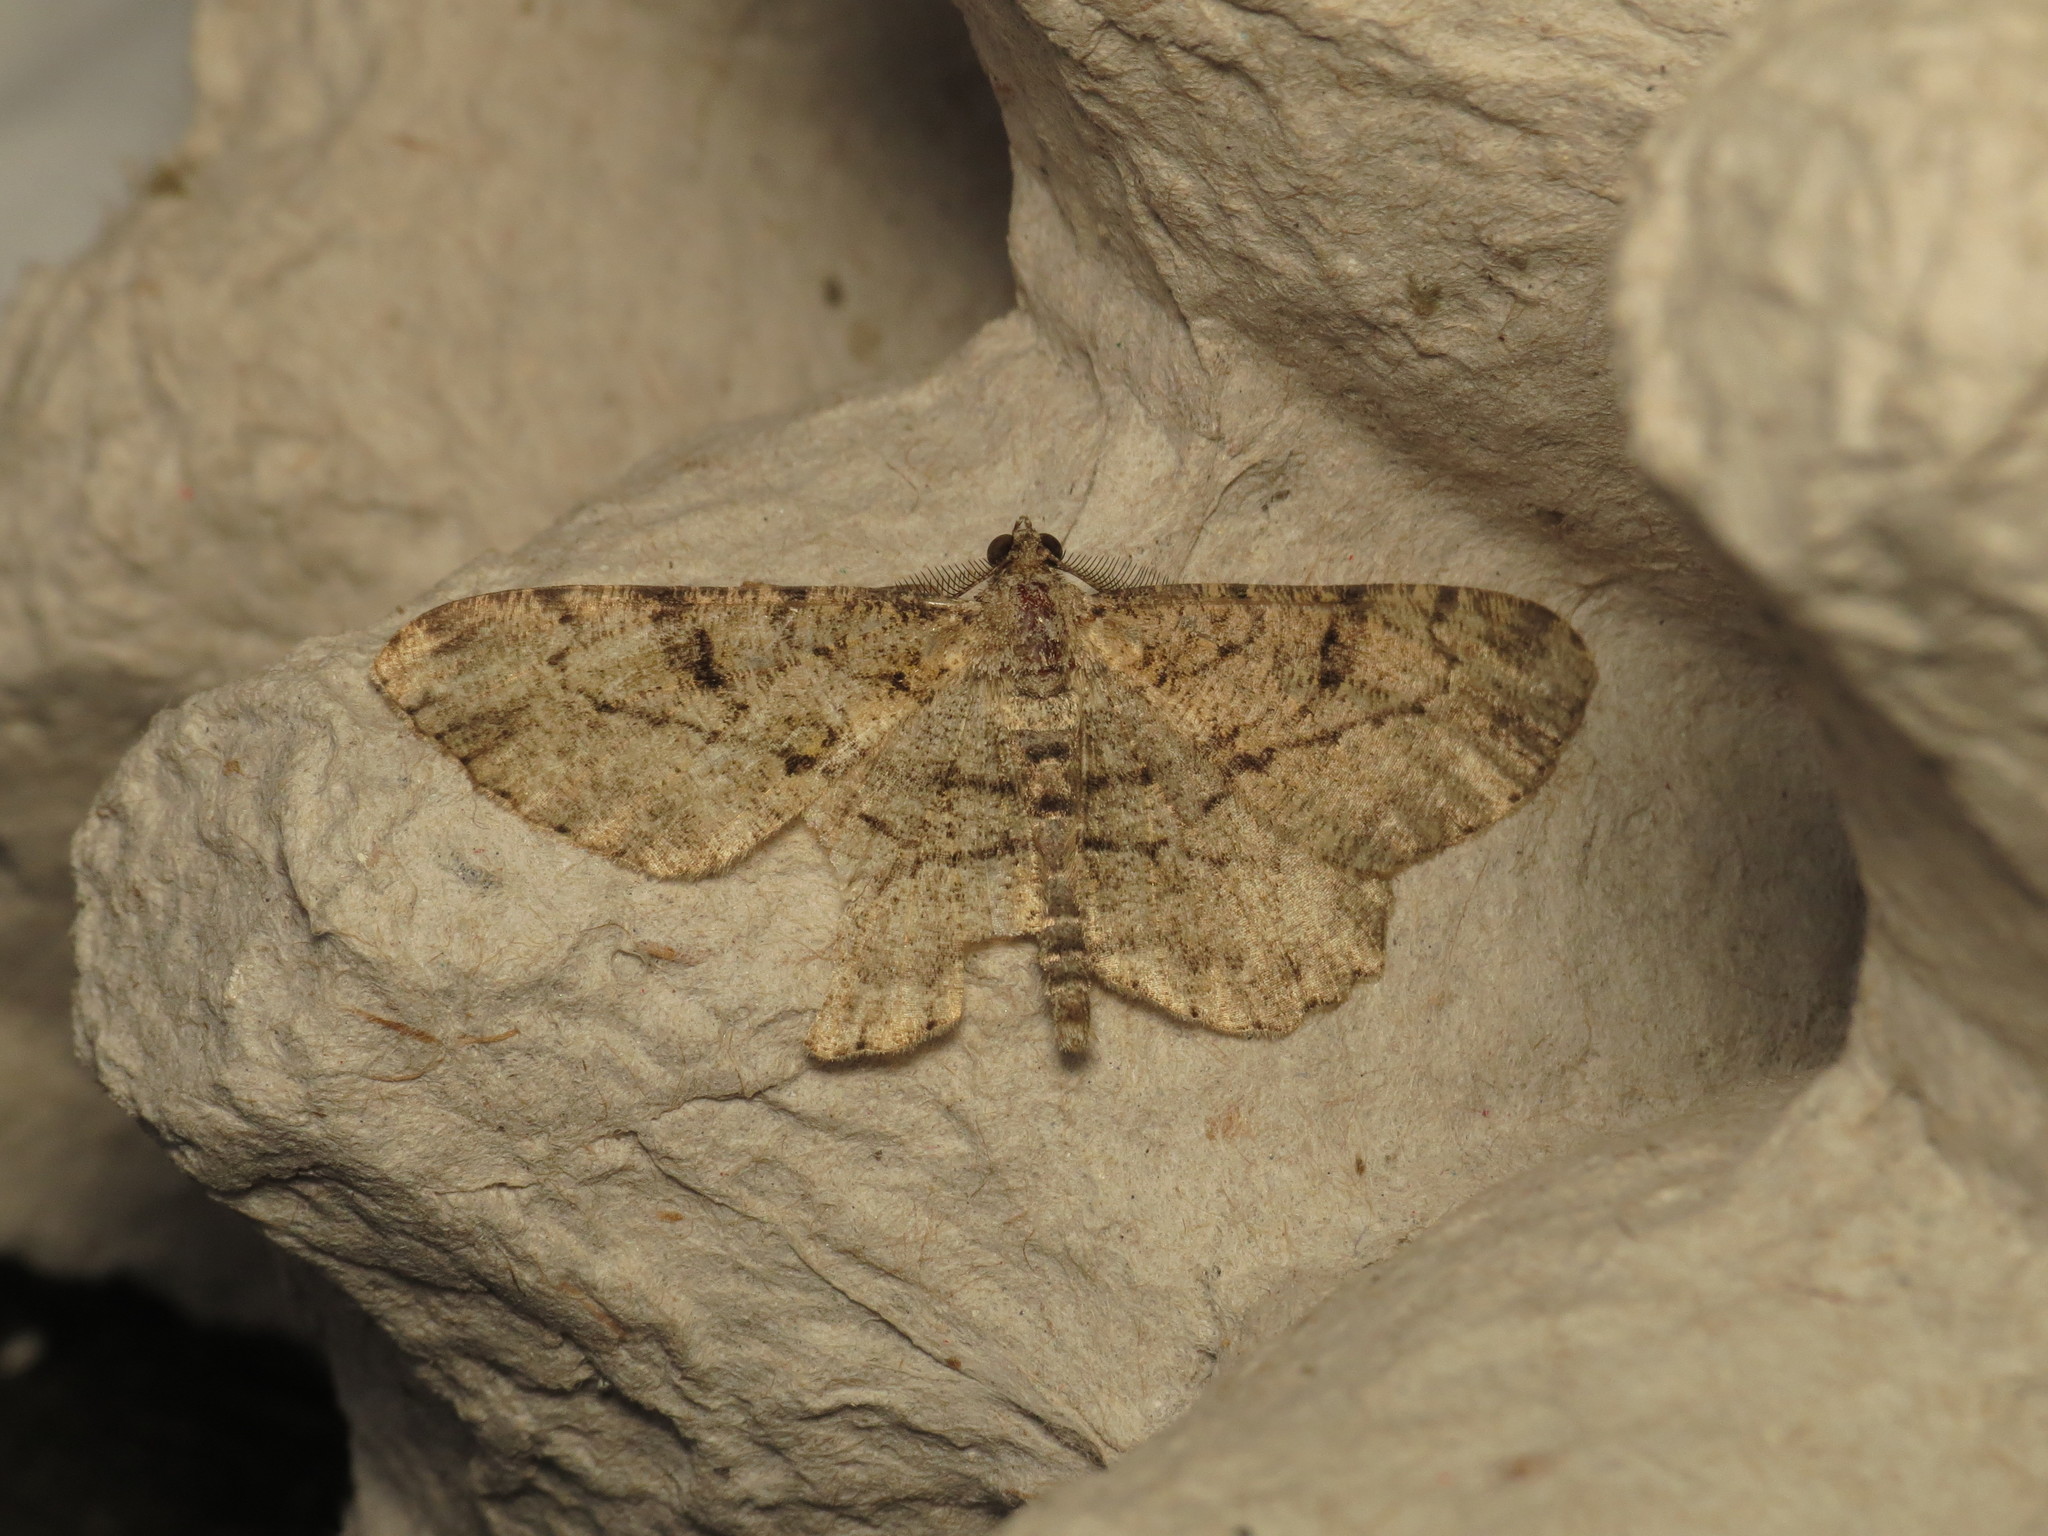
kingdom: Animalia
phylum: Arthropoda
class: Insecta
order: Lepidoptera
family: Geometridae
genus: Peribatodes
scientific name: Peribatodes rhomboidaria
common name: Willow beauty
